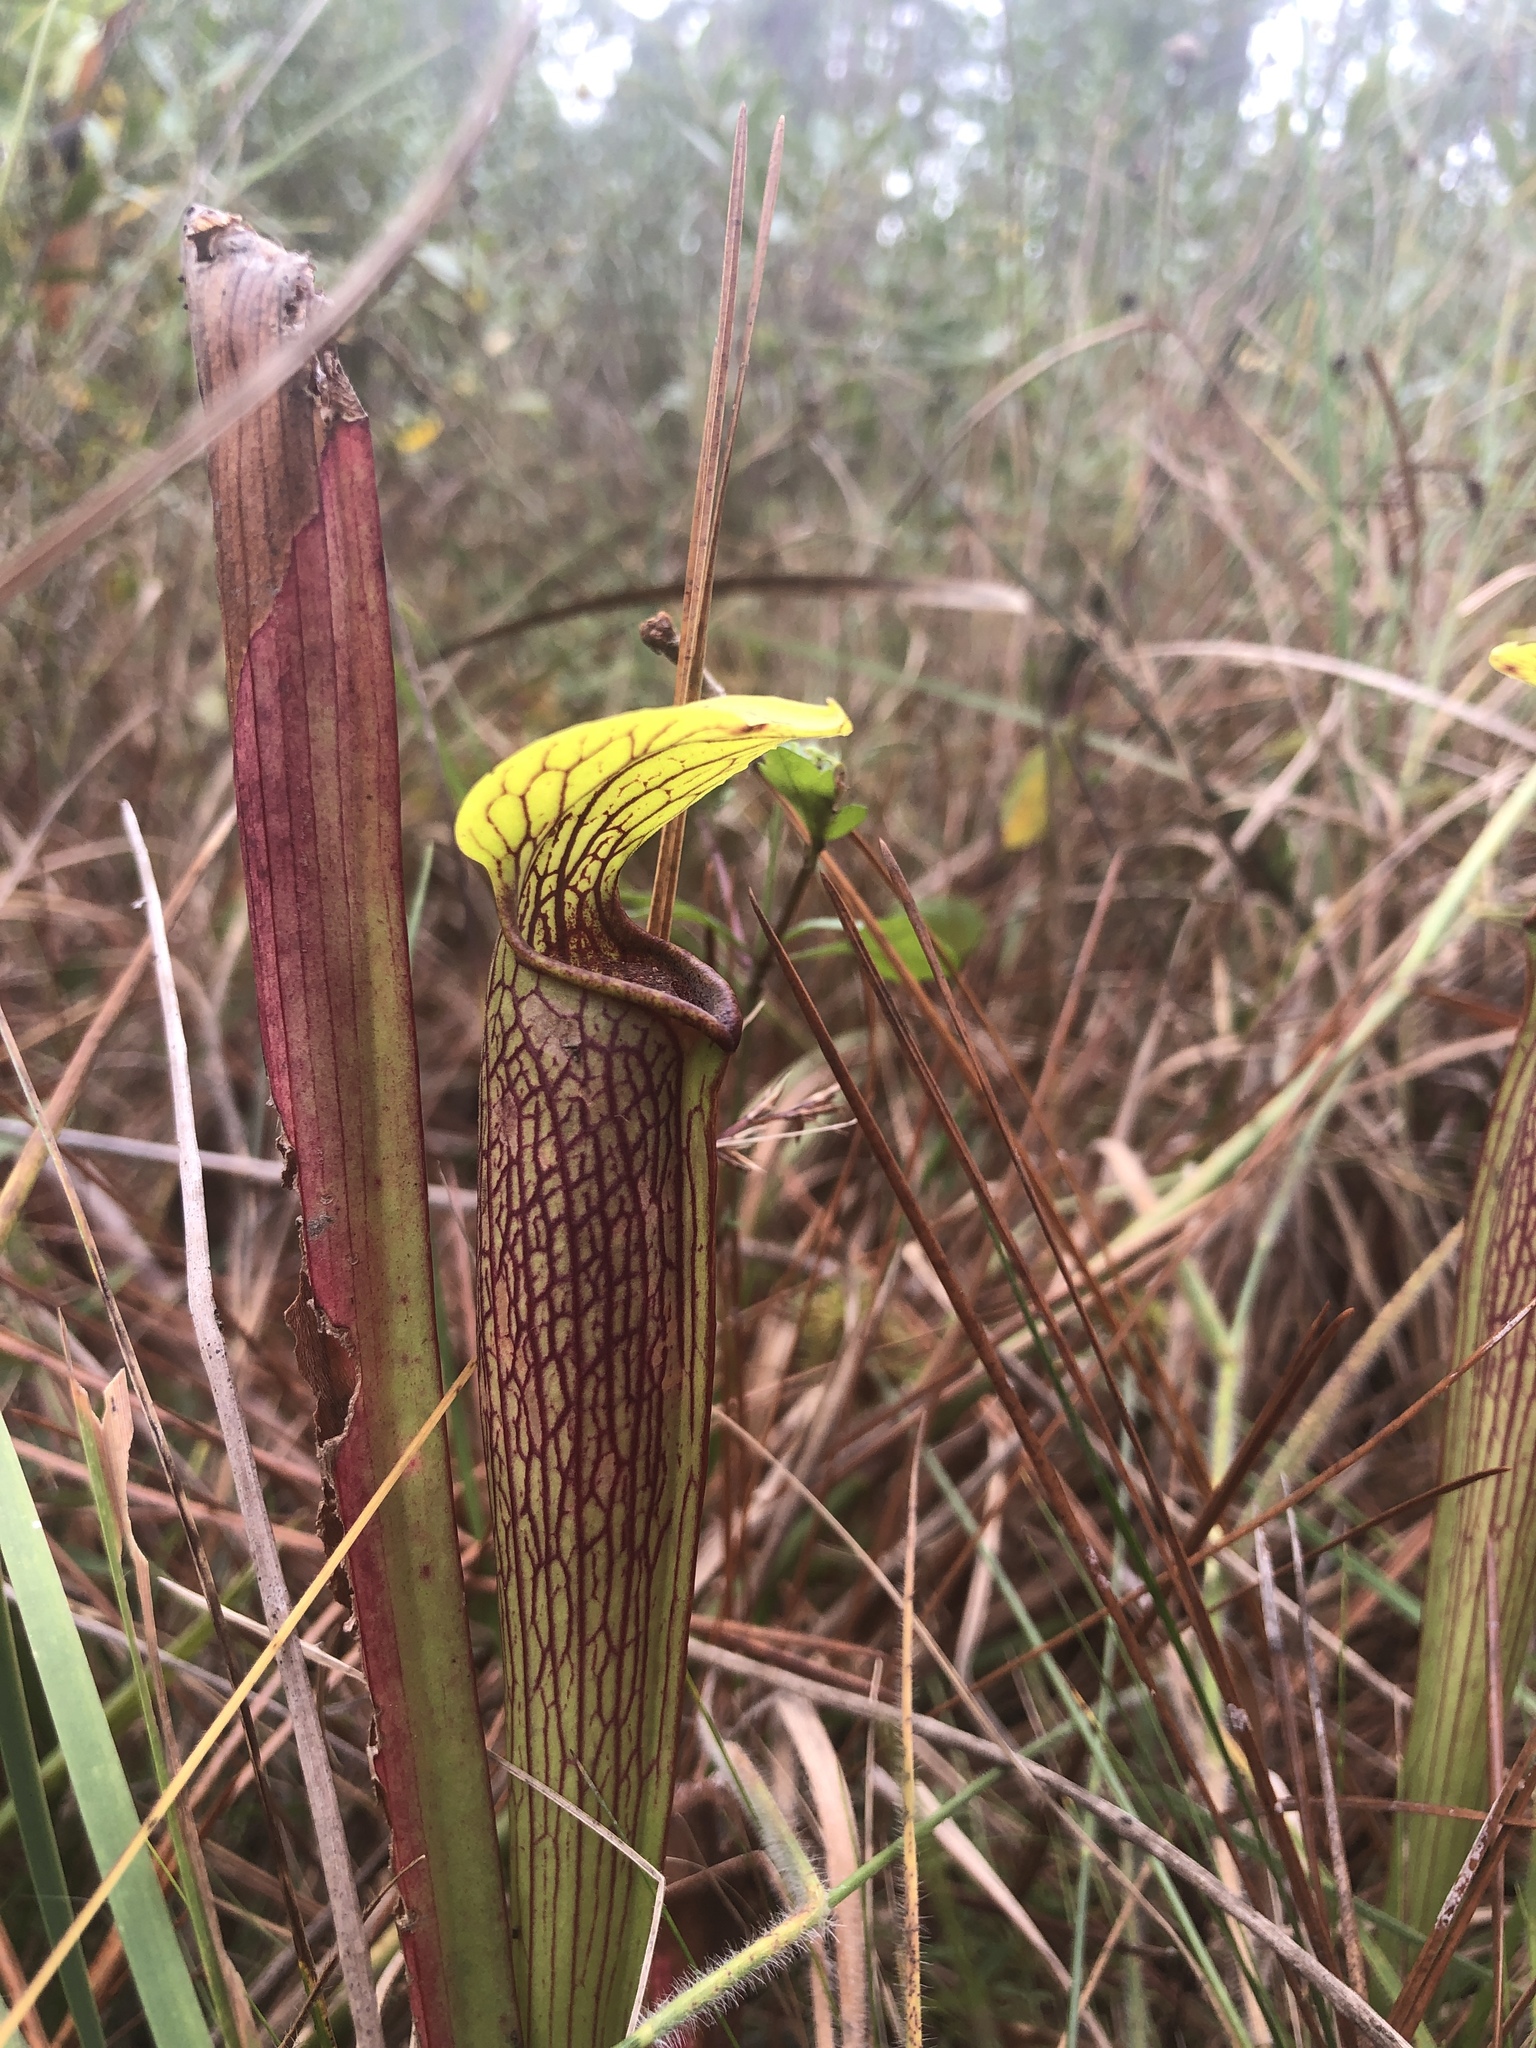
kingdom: Plantae
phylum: Tracheophyta
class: Magnoliopsida
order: Ericales
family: Sarraceniaceae
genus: Sarracenia
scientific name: Sarracenia alata
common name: Yellow trumpets
